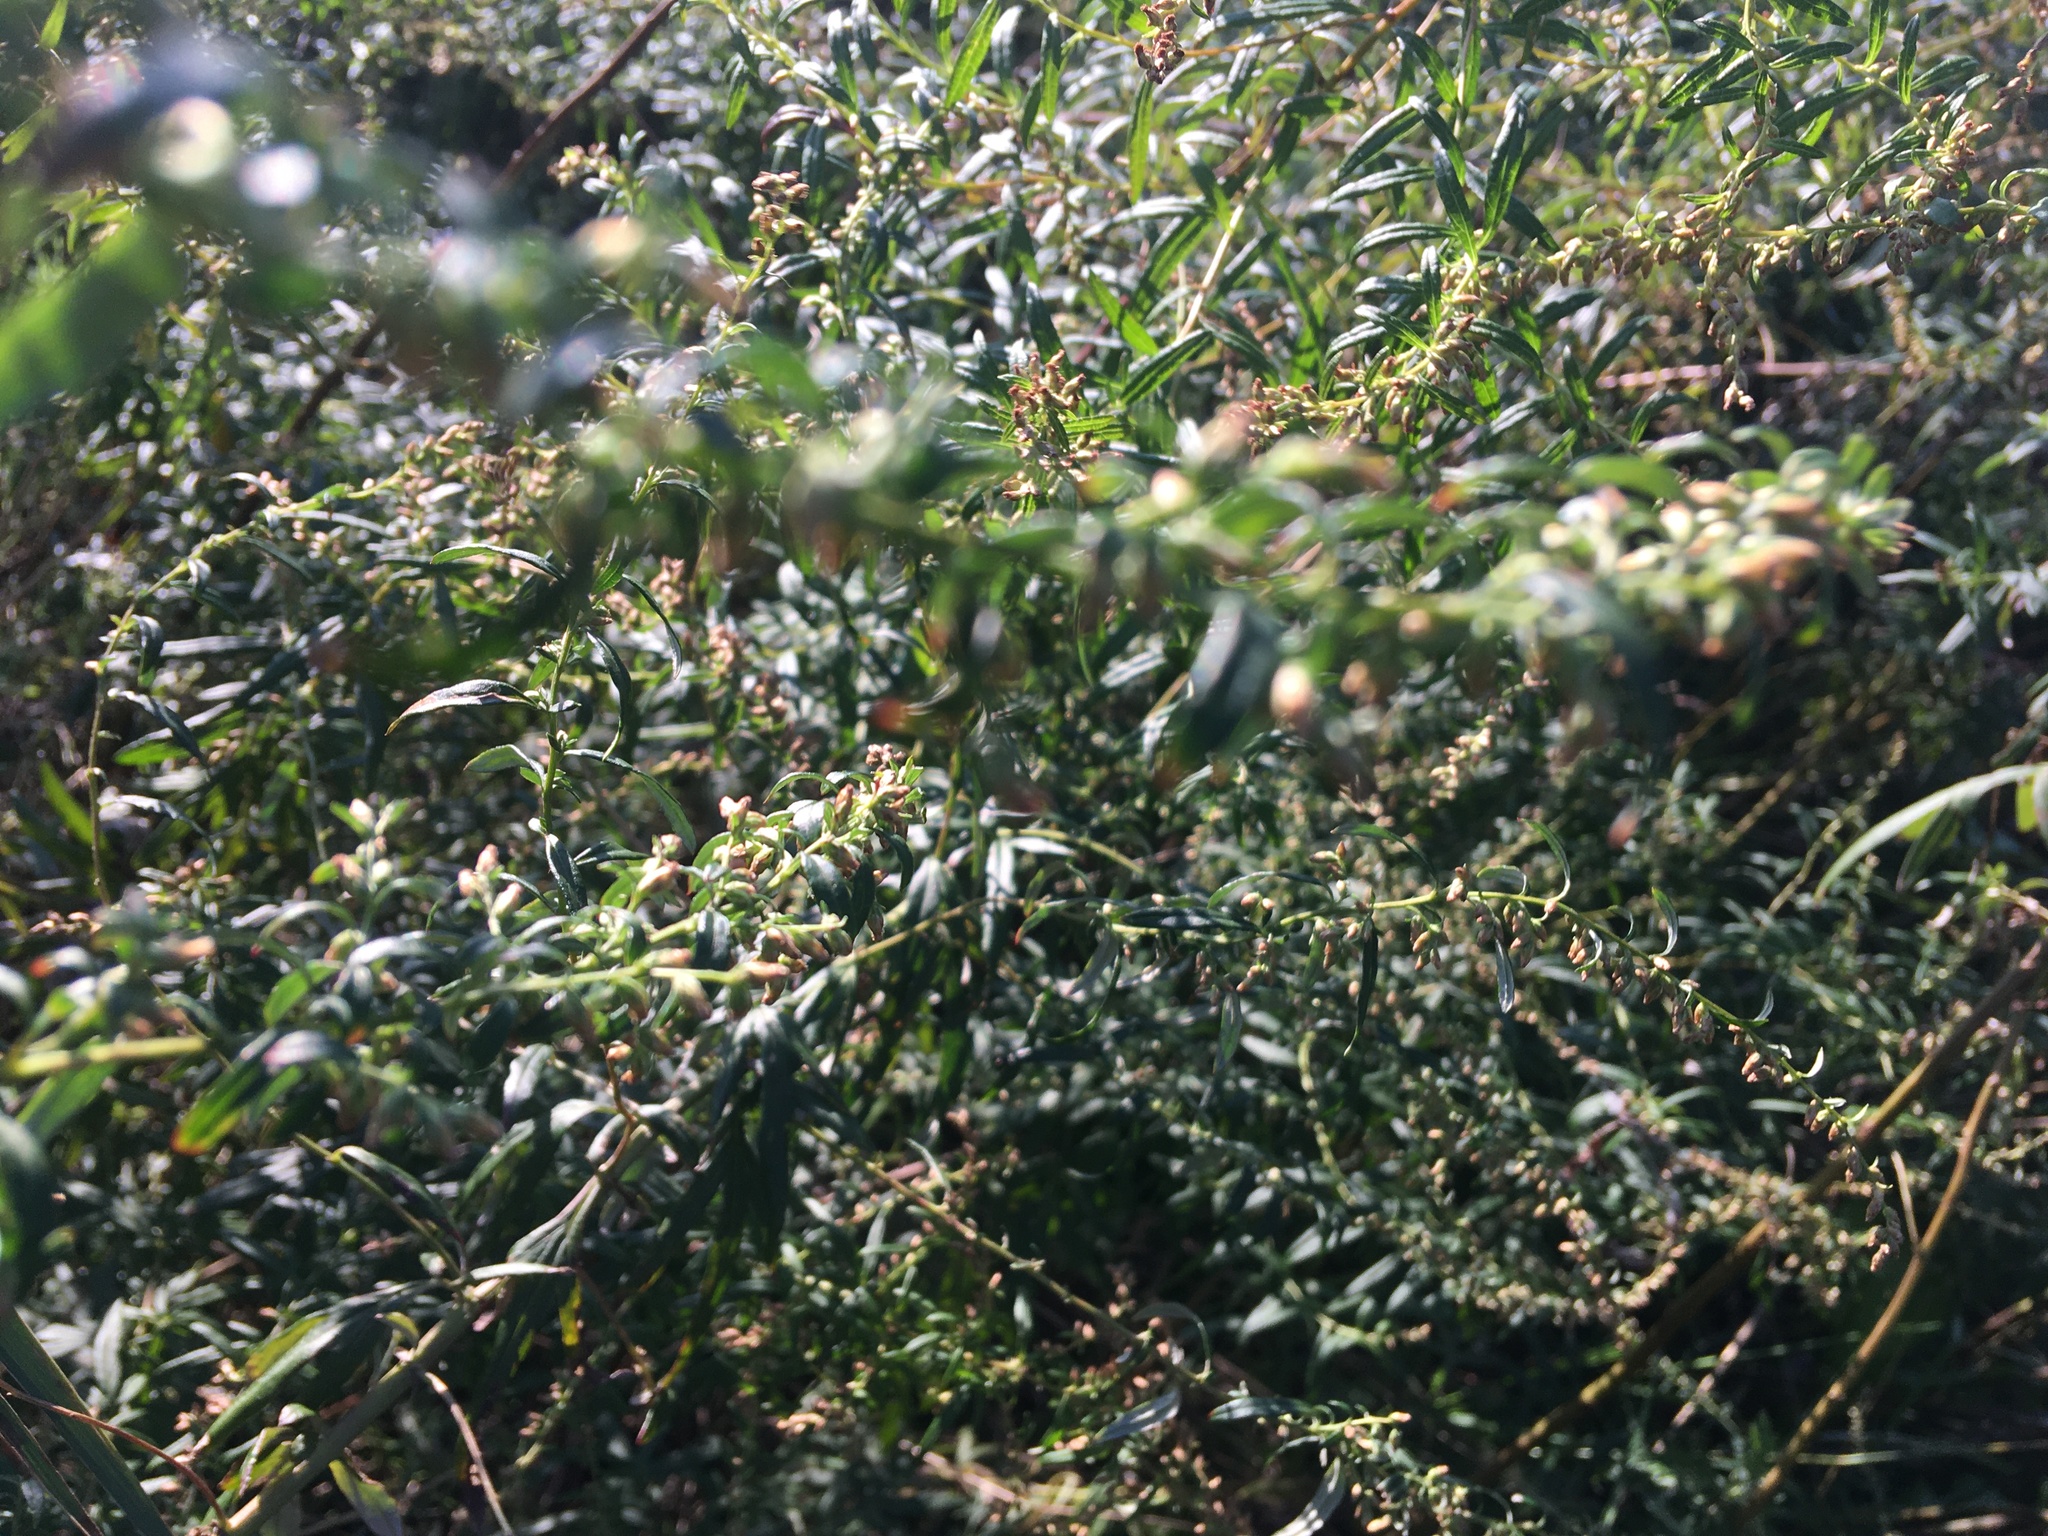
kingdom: Plantae
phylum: Tracheophyta
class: Magnoliopsida
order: Asterales
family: Asteraceae
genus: Artemisia
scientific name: Artemisia vulgaris
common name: Mugwort
